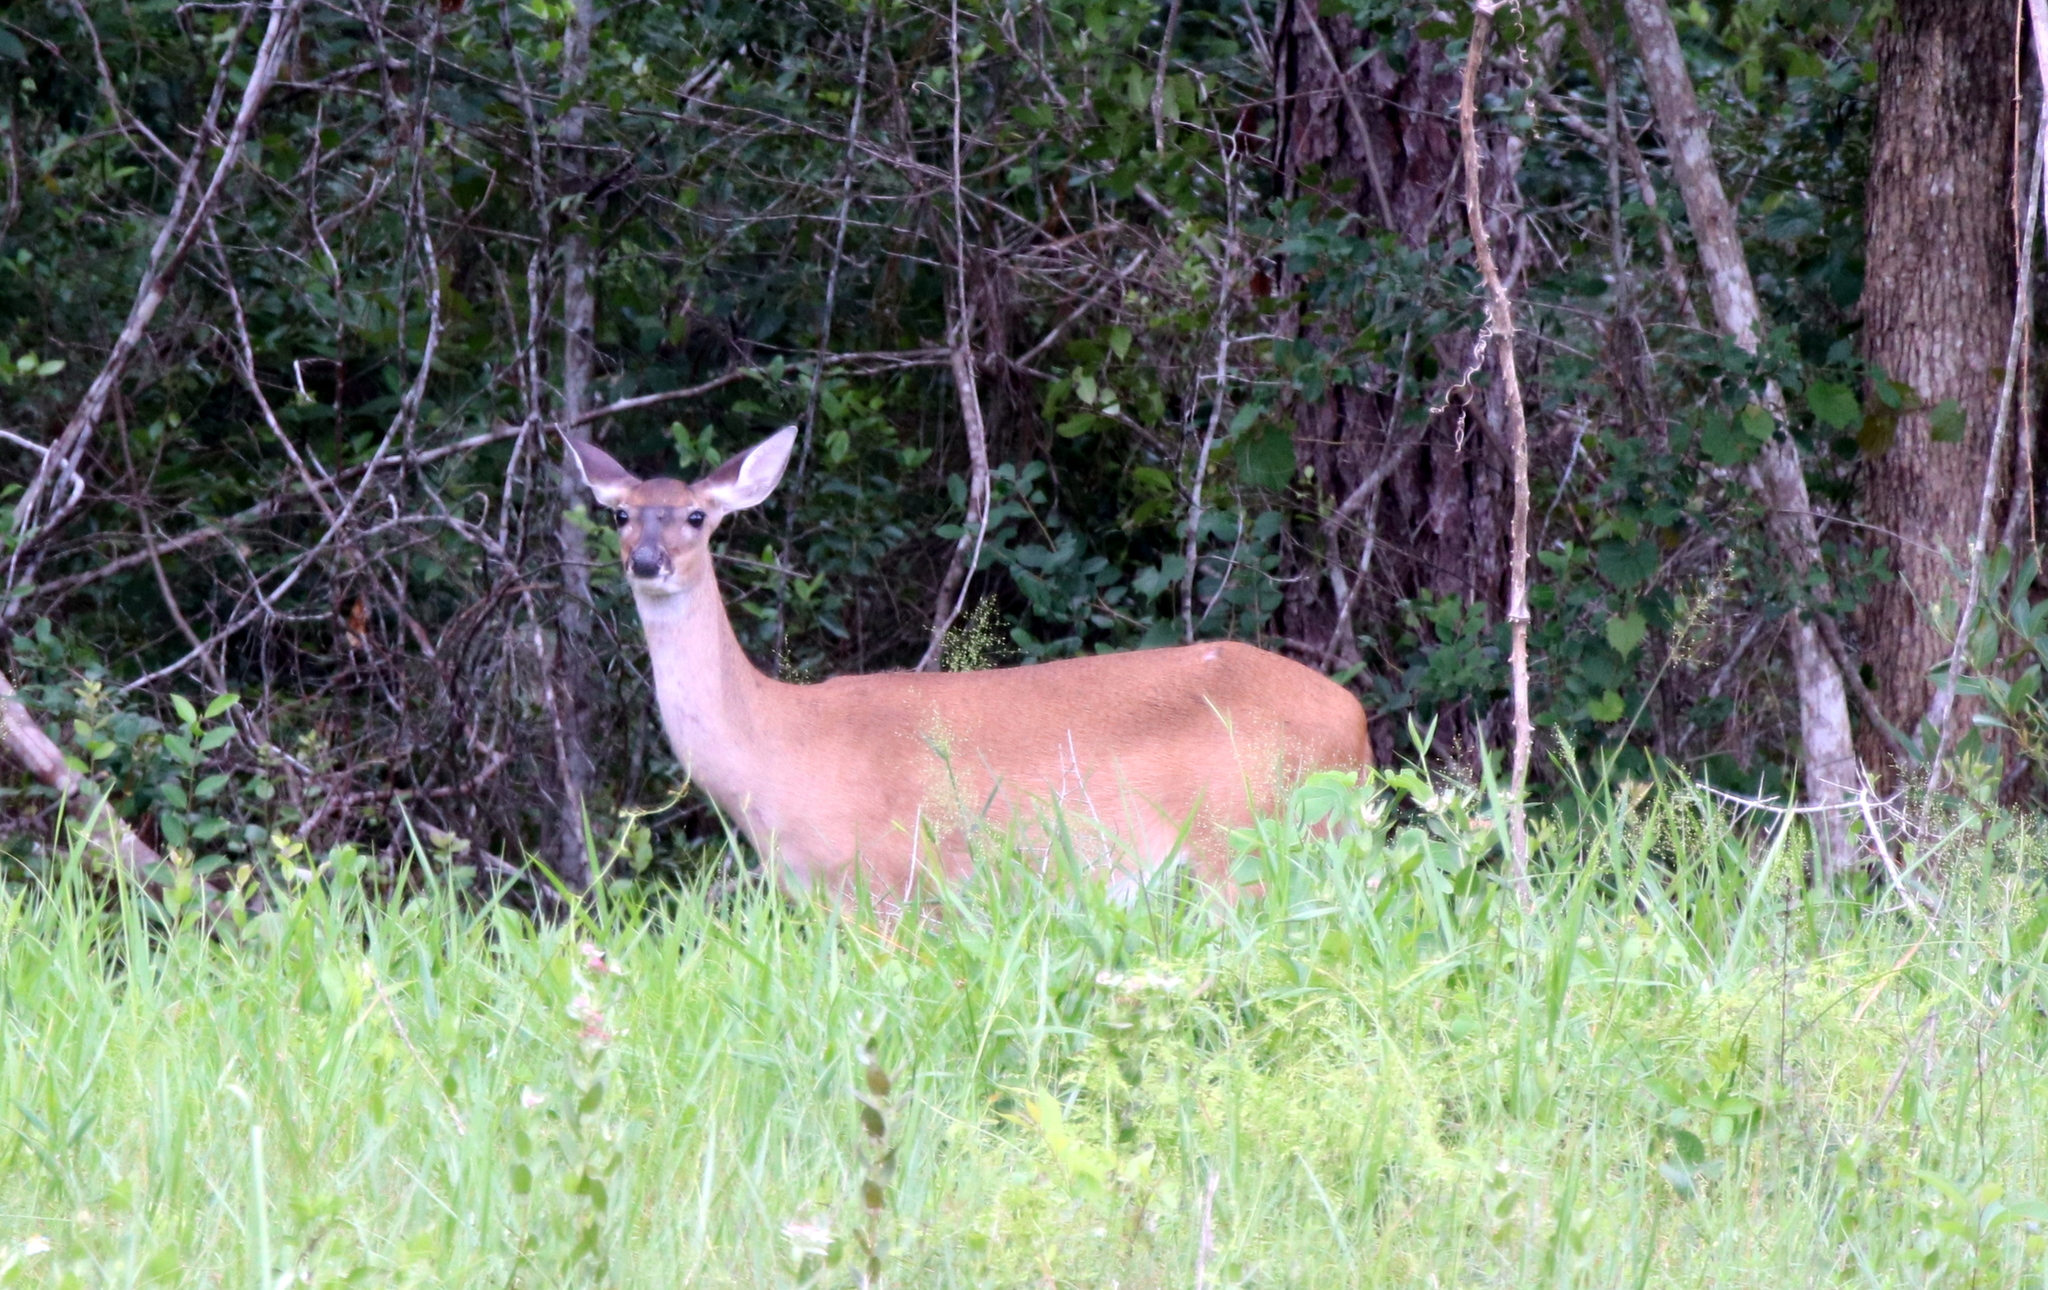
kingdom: Animalia
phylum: Chordata
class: Mammalia
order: Artiodactyla
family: Cervidae
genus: Odocoileus
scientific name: Odocoileus virginianus
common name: White-tailed deer
